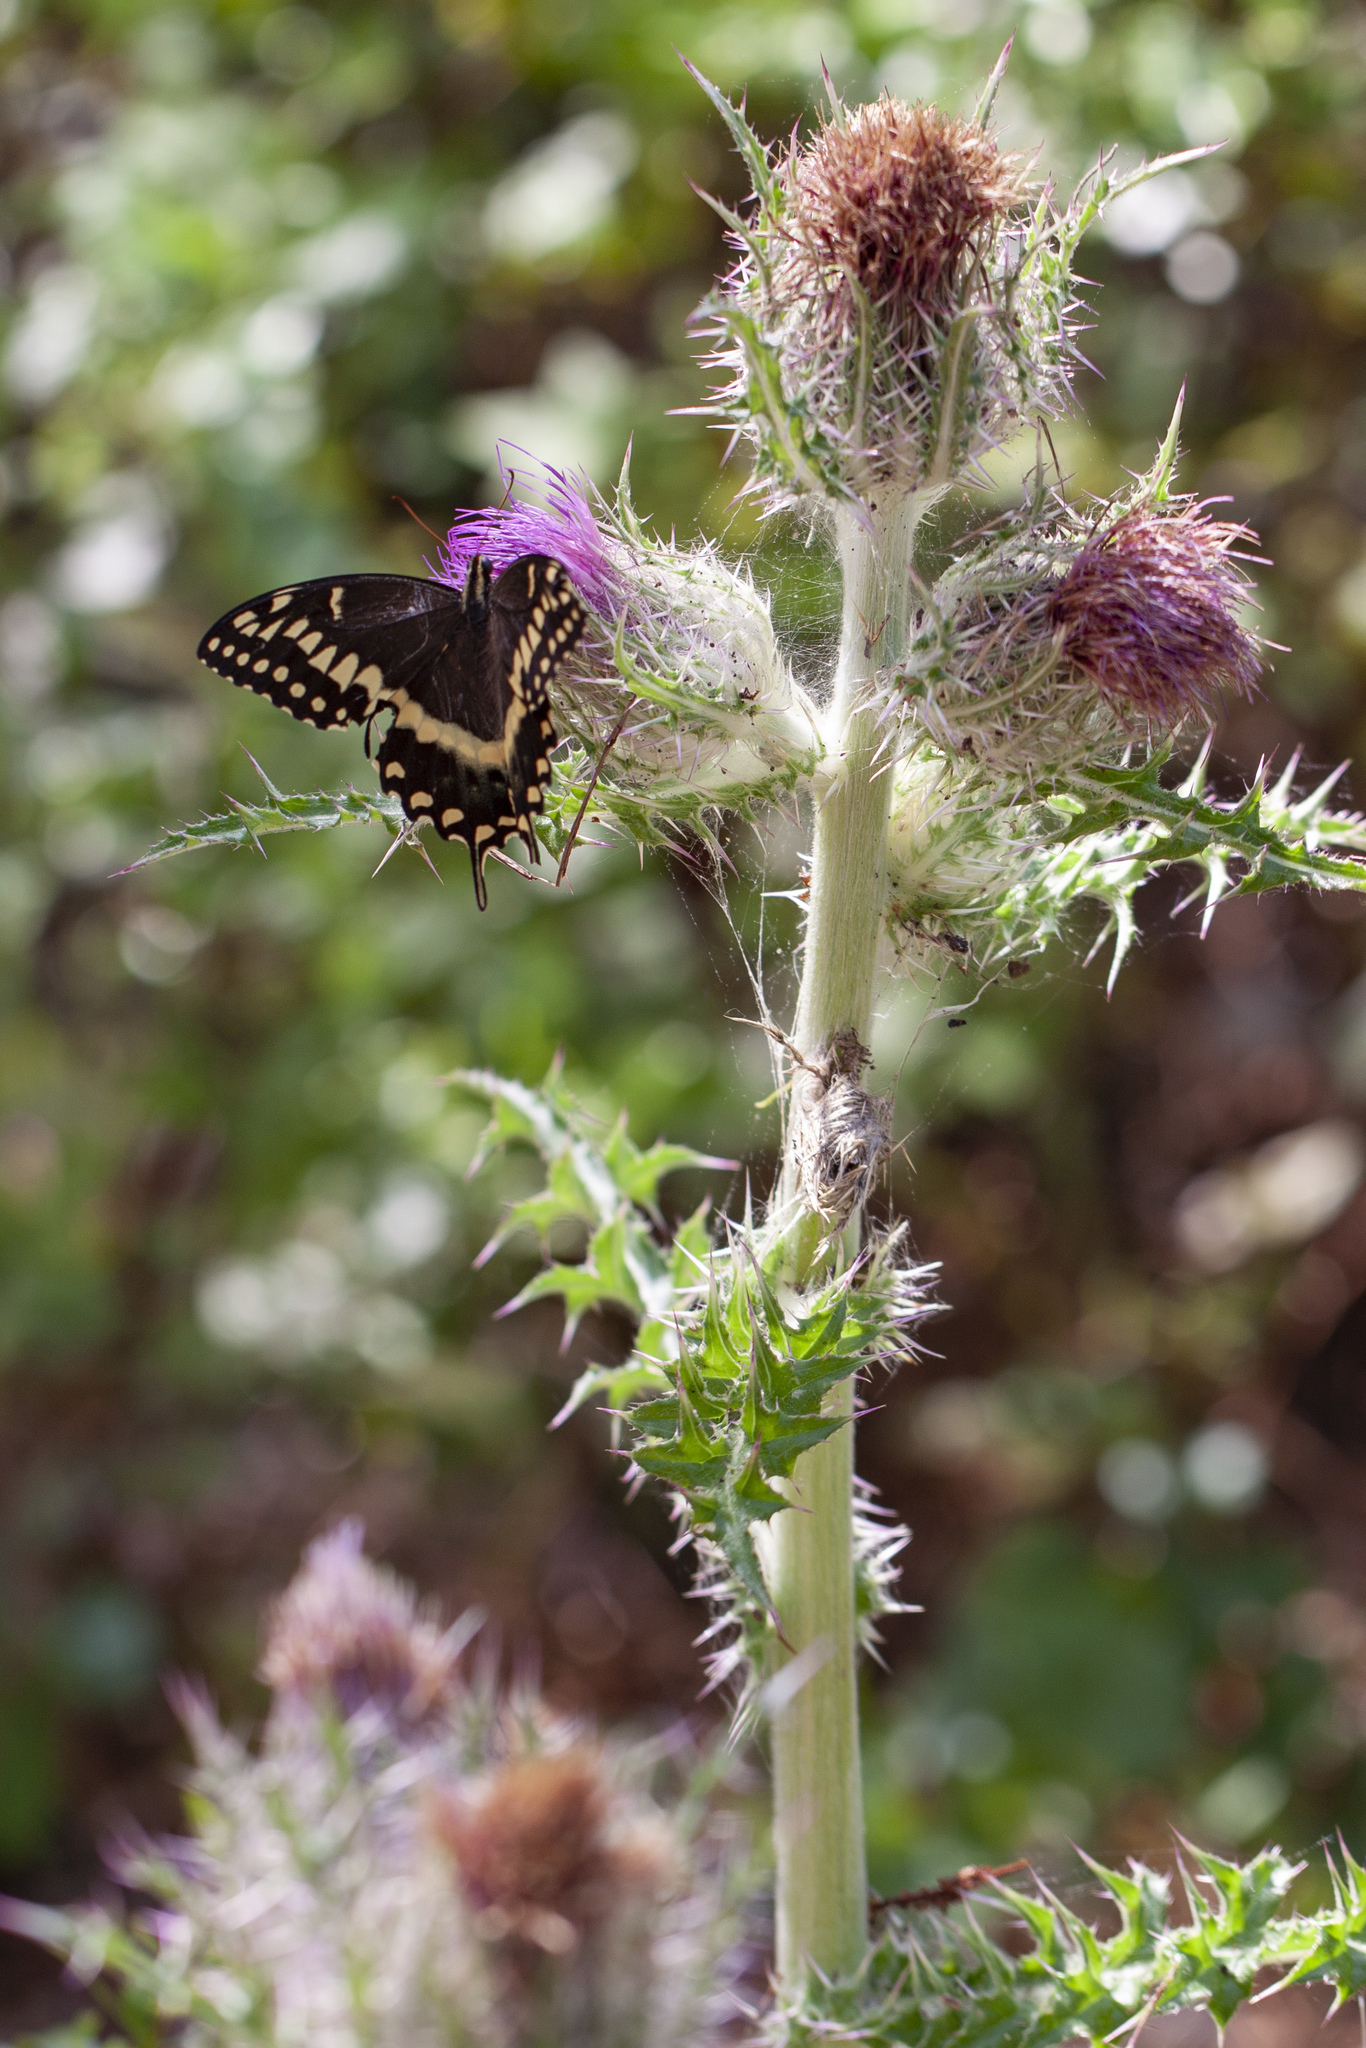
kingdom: Animalia
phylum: Arthropoda
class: Insecta
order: Lepidoptera
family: Papilionidae
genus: Papilio
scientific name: Papilio palamedes
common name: Palamedes swallowtail
